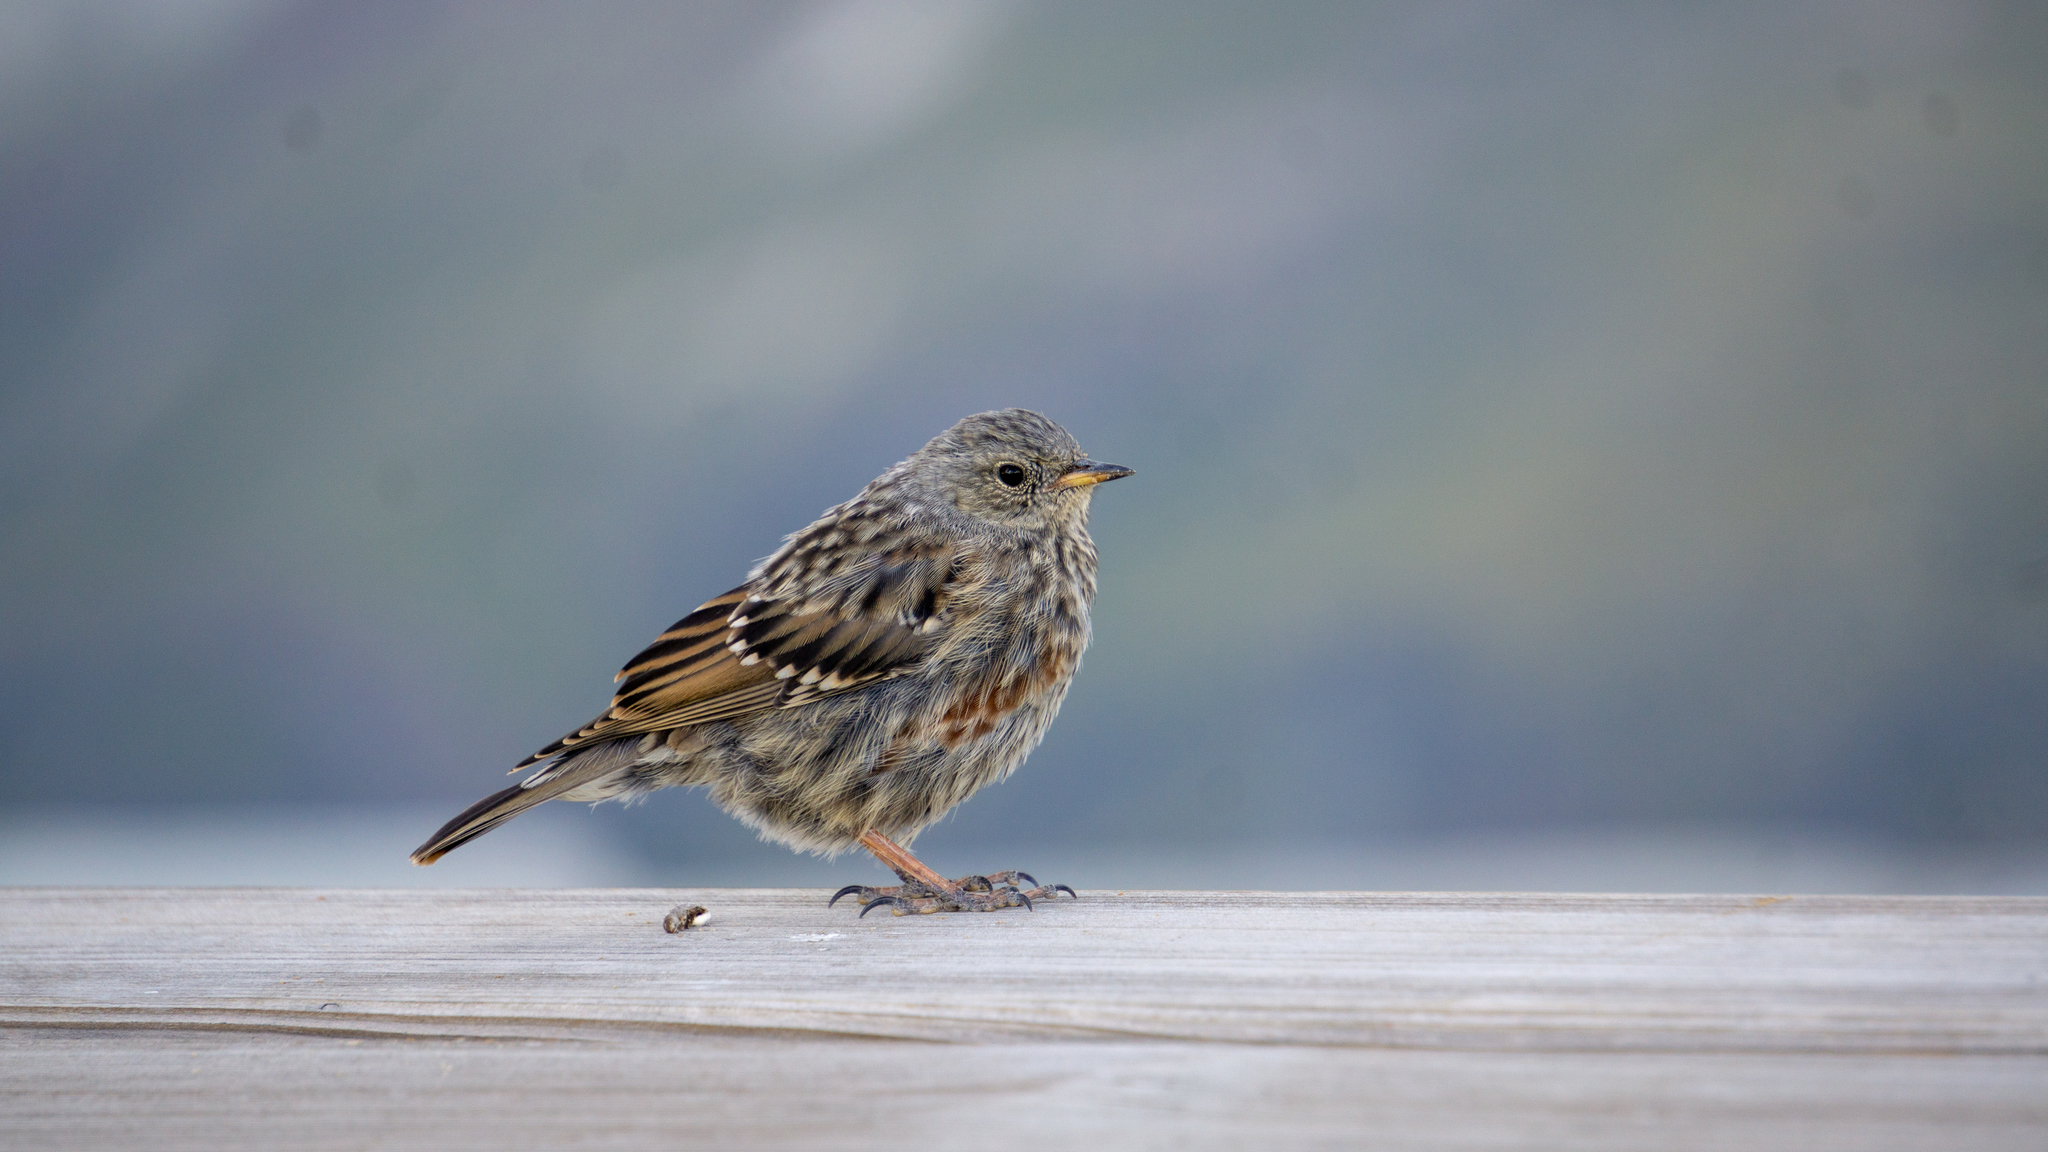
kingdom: Animalia
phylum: Chordata
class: Aves
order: Passeriformes
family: Prunellidae
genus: Prunella
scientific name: Prunella collaris
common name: Alpine accentor
